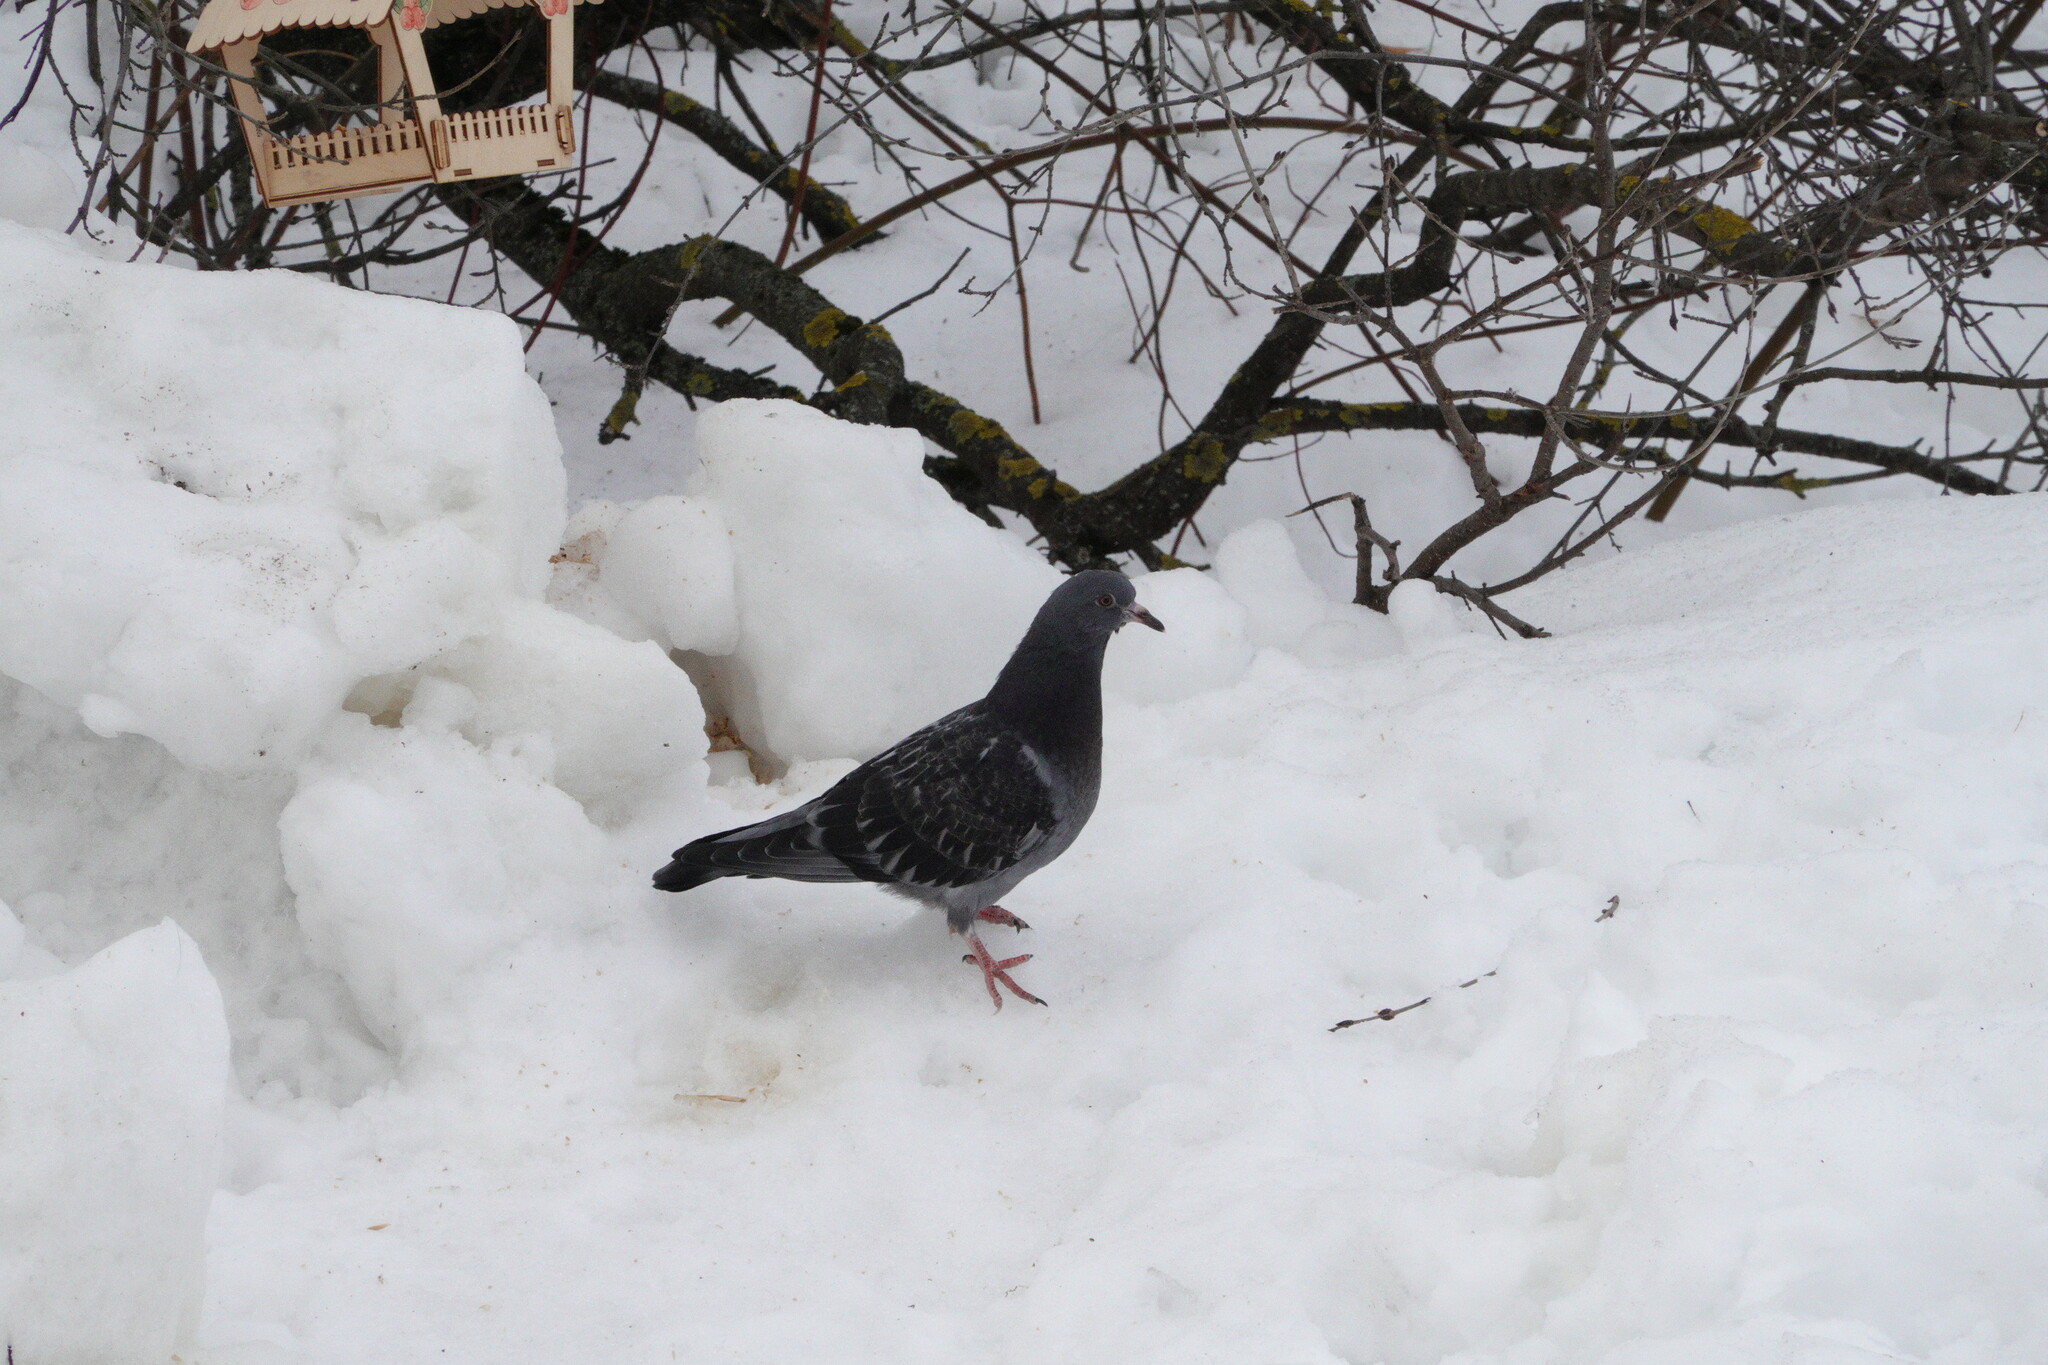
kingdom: Animalia
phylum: Chordata
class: Aves
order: Columbiformes
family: Columbidae
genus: Columba
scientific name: Columba livia
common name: Rock pigeon
